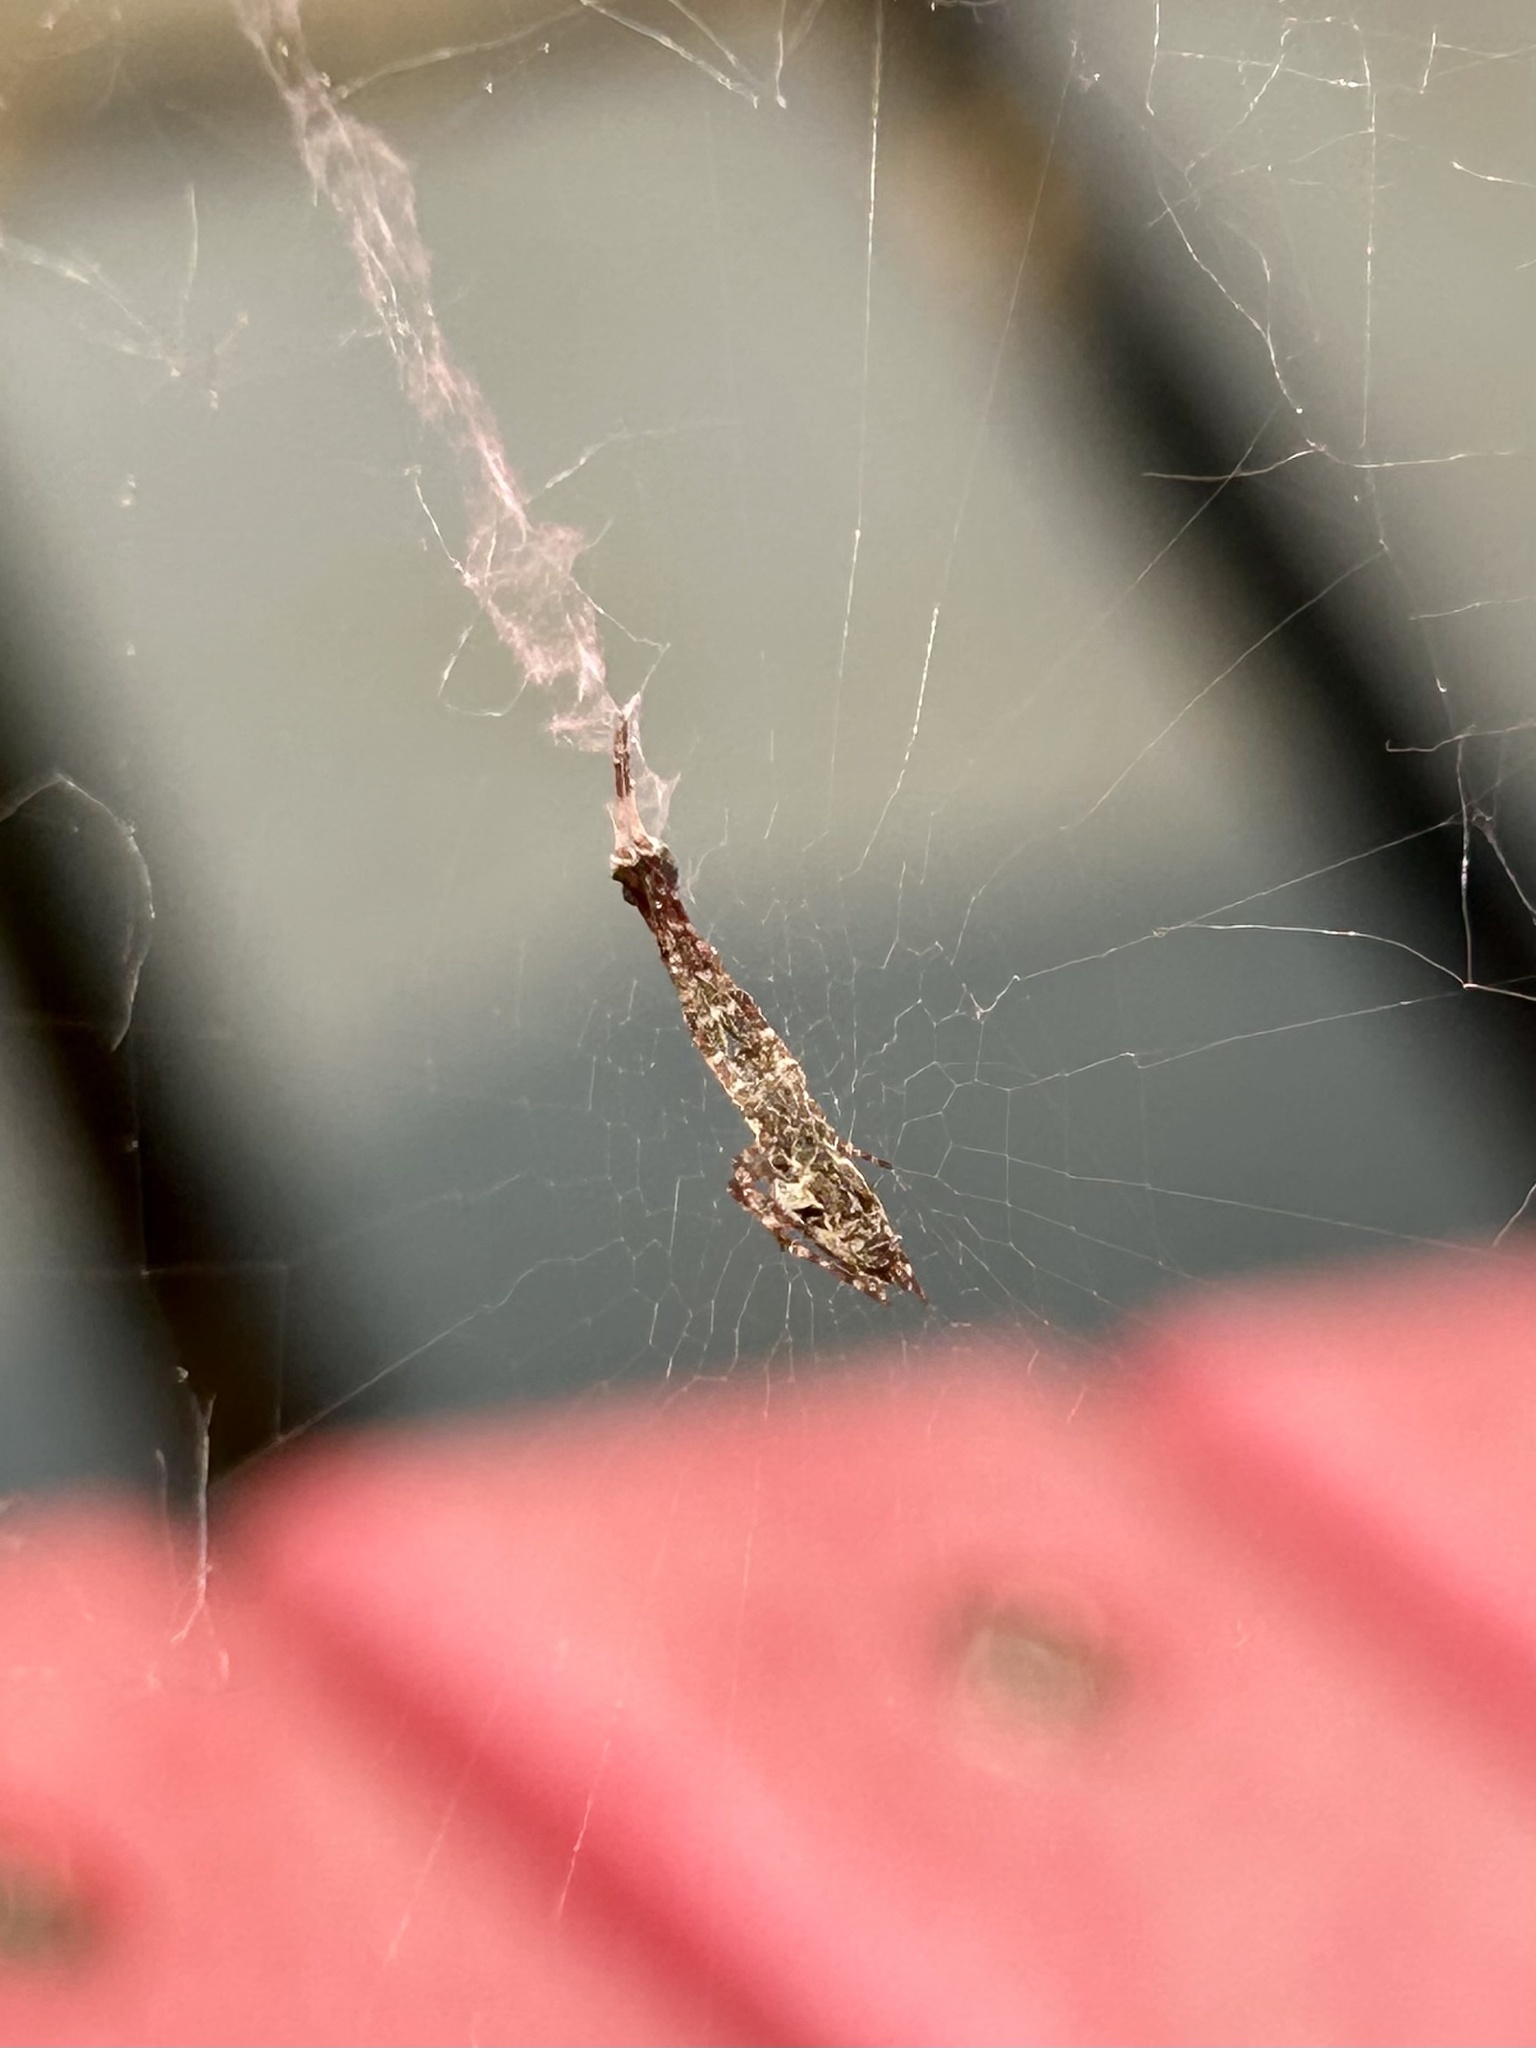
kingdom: Animalia
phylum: Arthropoda
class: Arachnida
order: Araneae
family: Uloboridae
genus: Uloborus
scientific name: Uloborus glomosus
